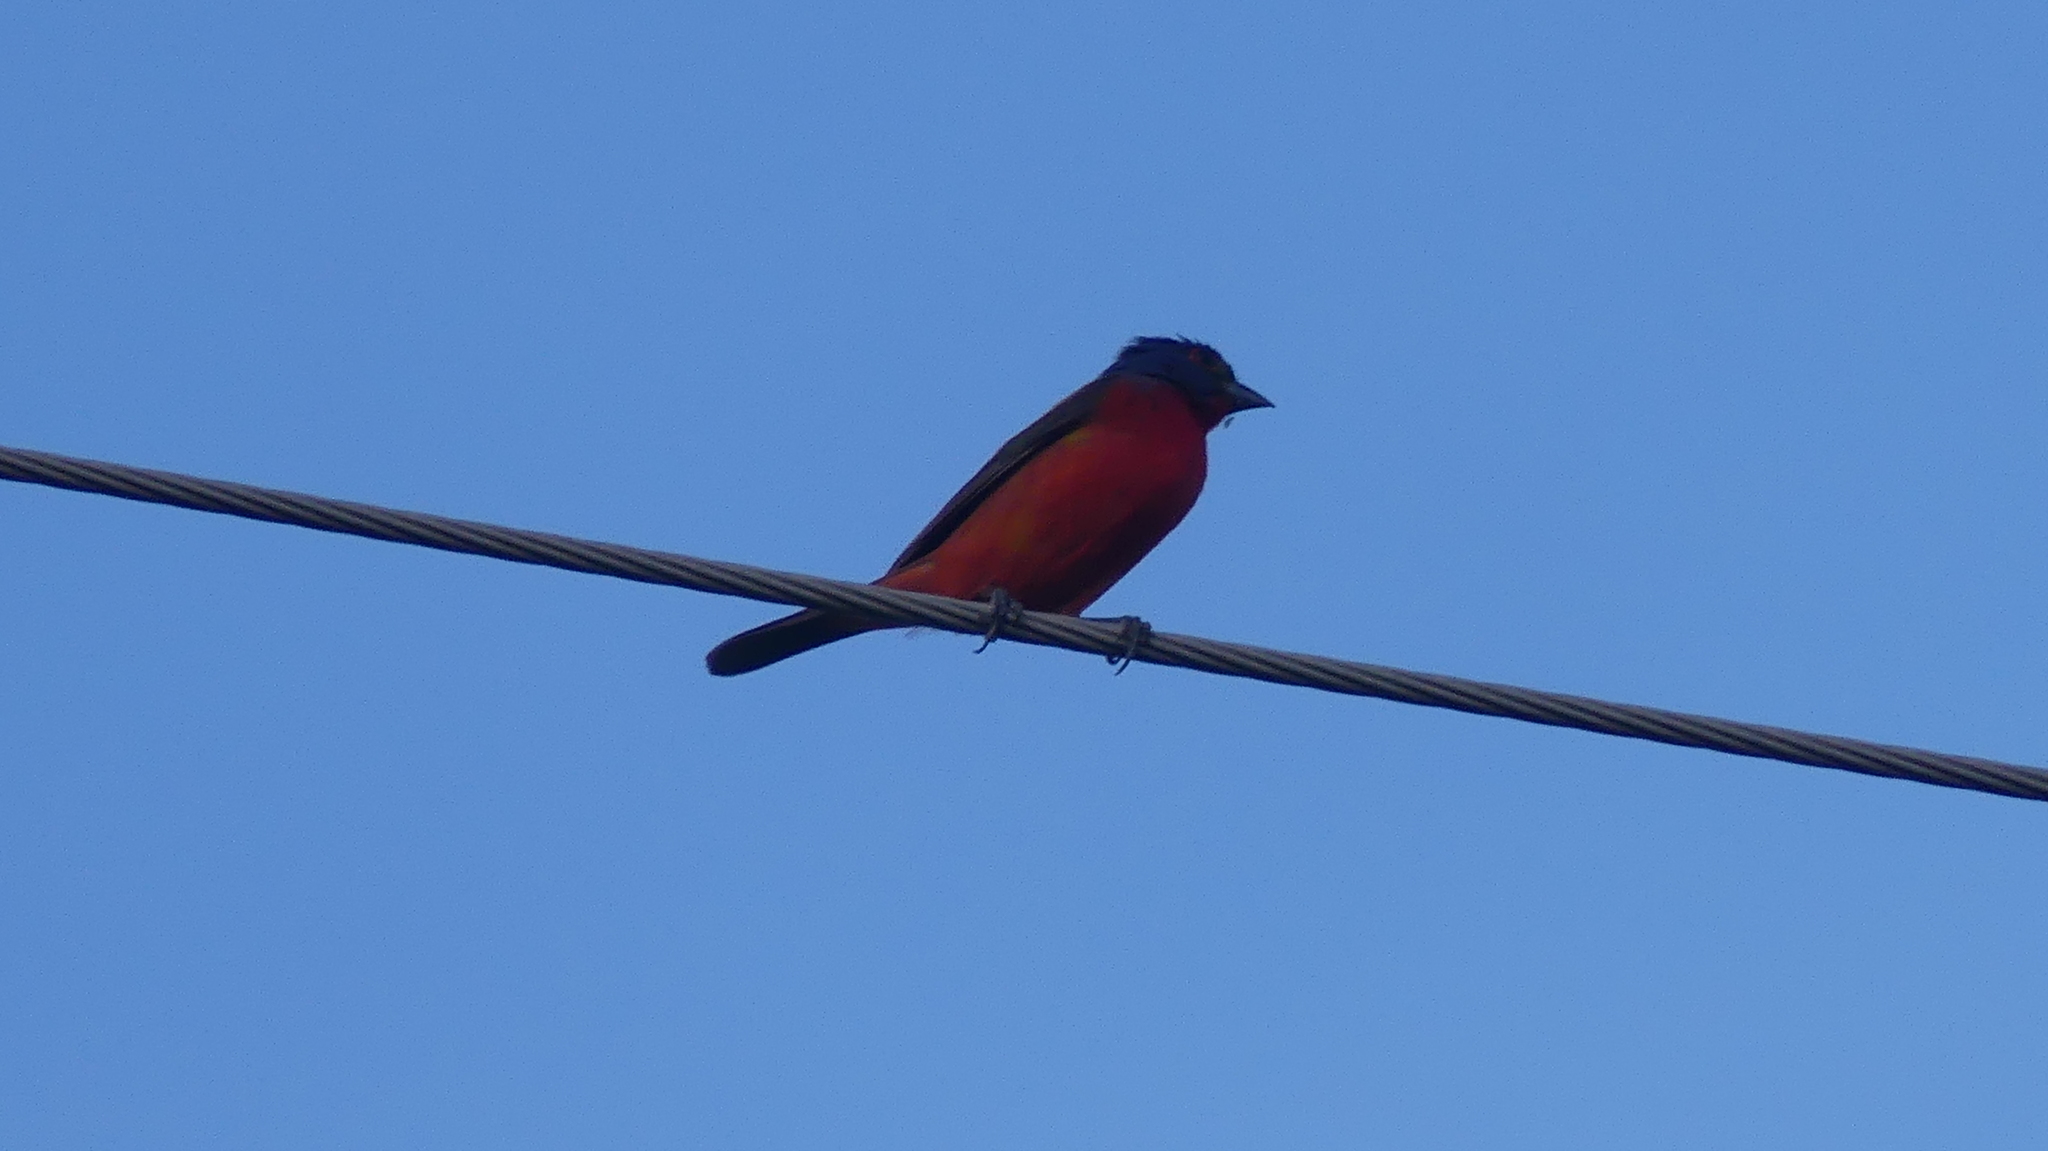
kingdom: Animalia
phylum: Chordata
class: Aves
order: Passeriformes
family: Cardinalidae
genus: Passerina
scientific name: Passerina ciris
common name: Painted bunting
